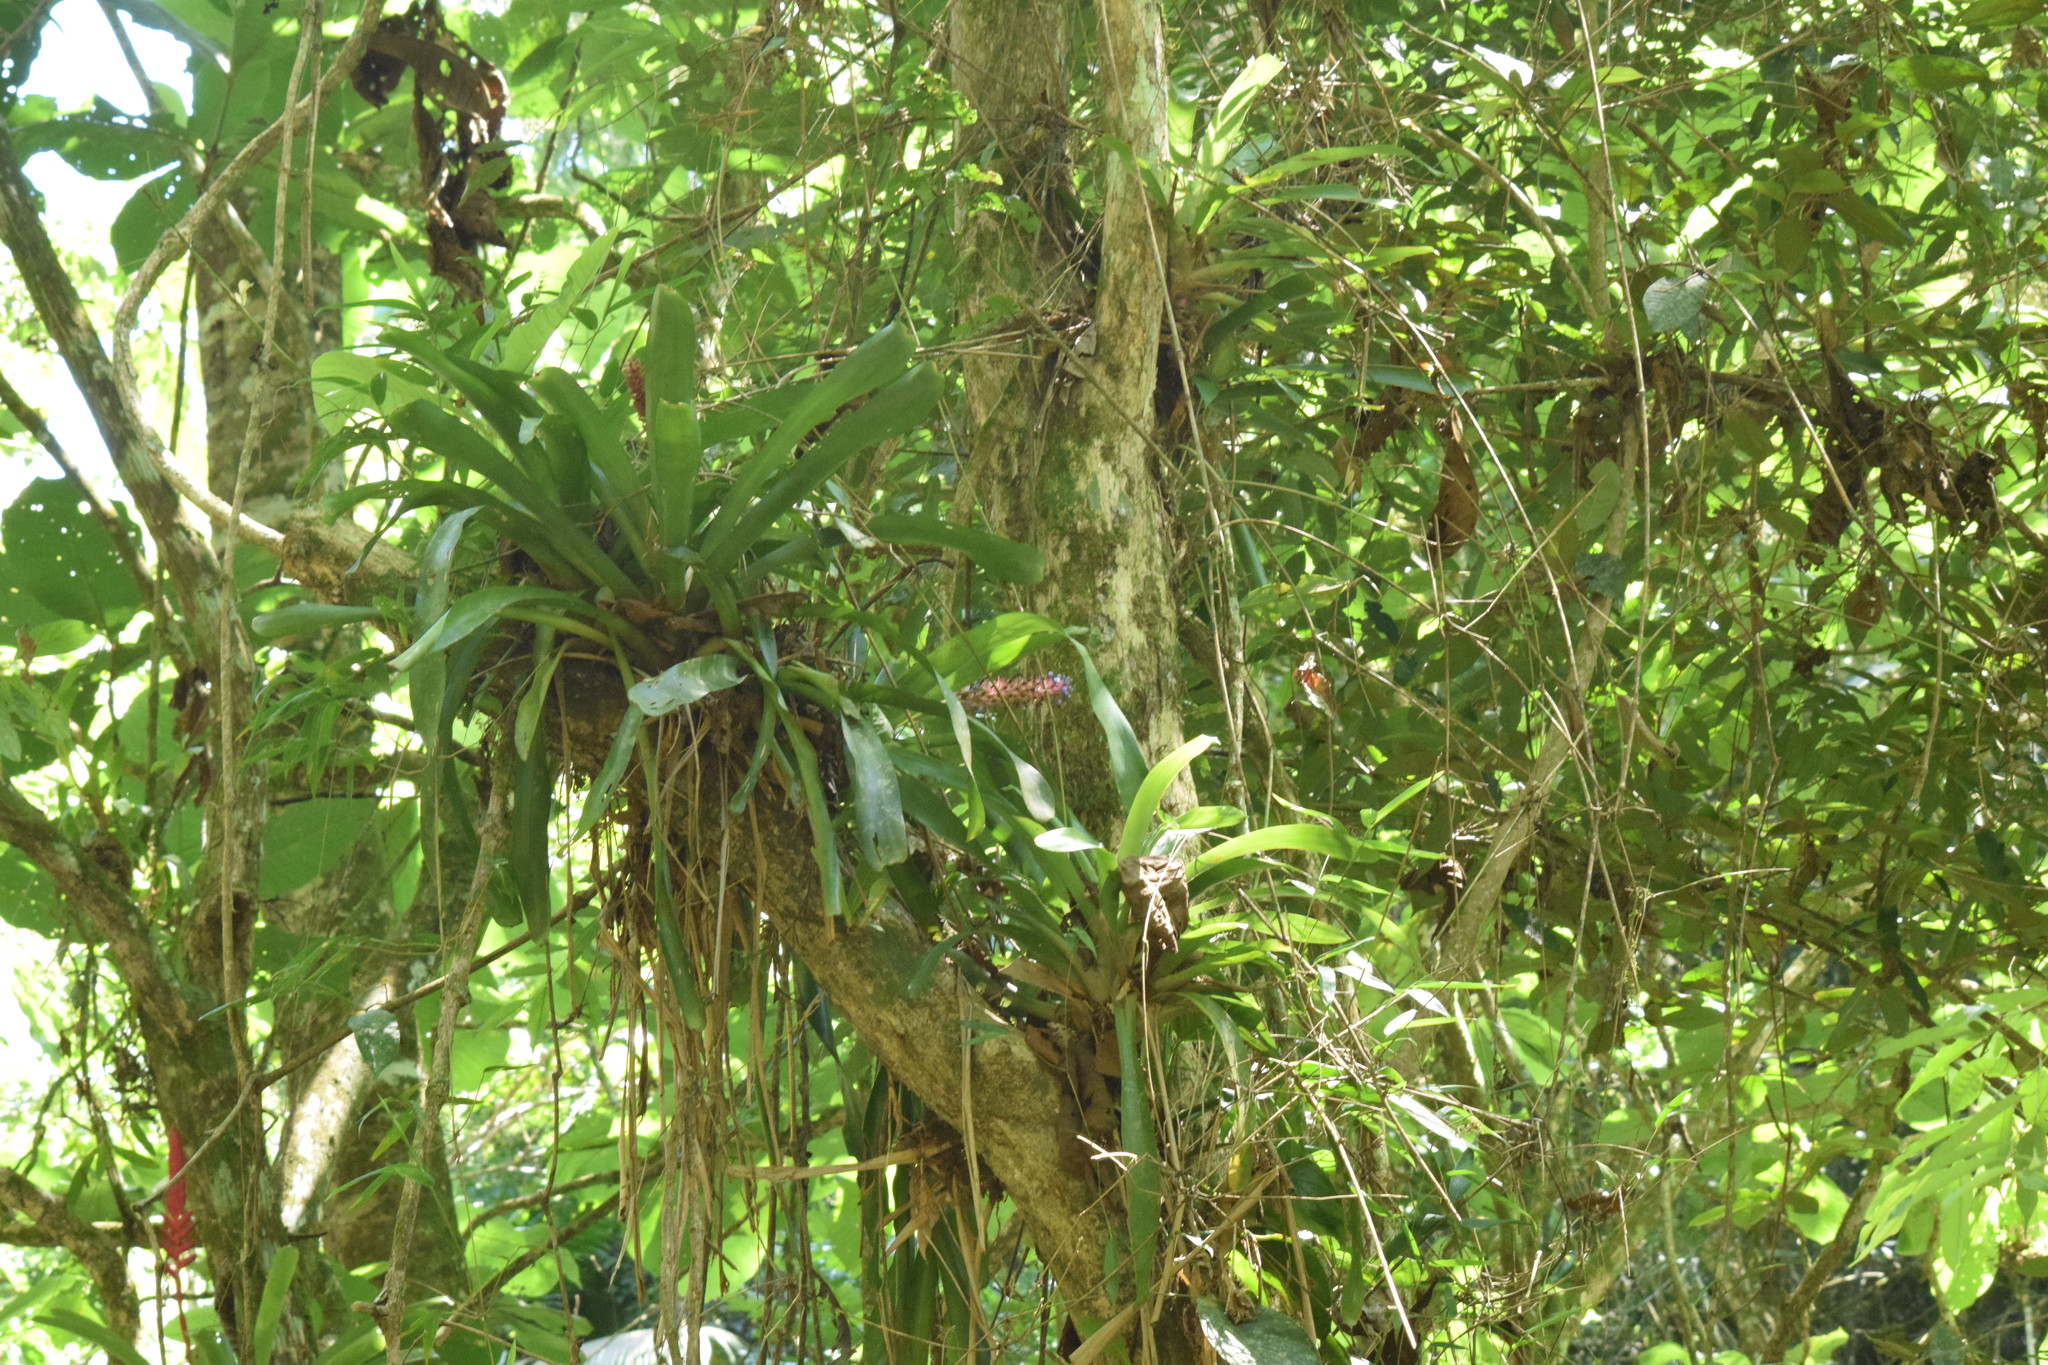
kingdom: Plantae
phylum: Tracheophyta
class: Liliopsida
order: Poales
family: Bromeliaceae
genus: Aechmea
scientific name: Aechmea cylindrata
